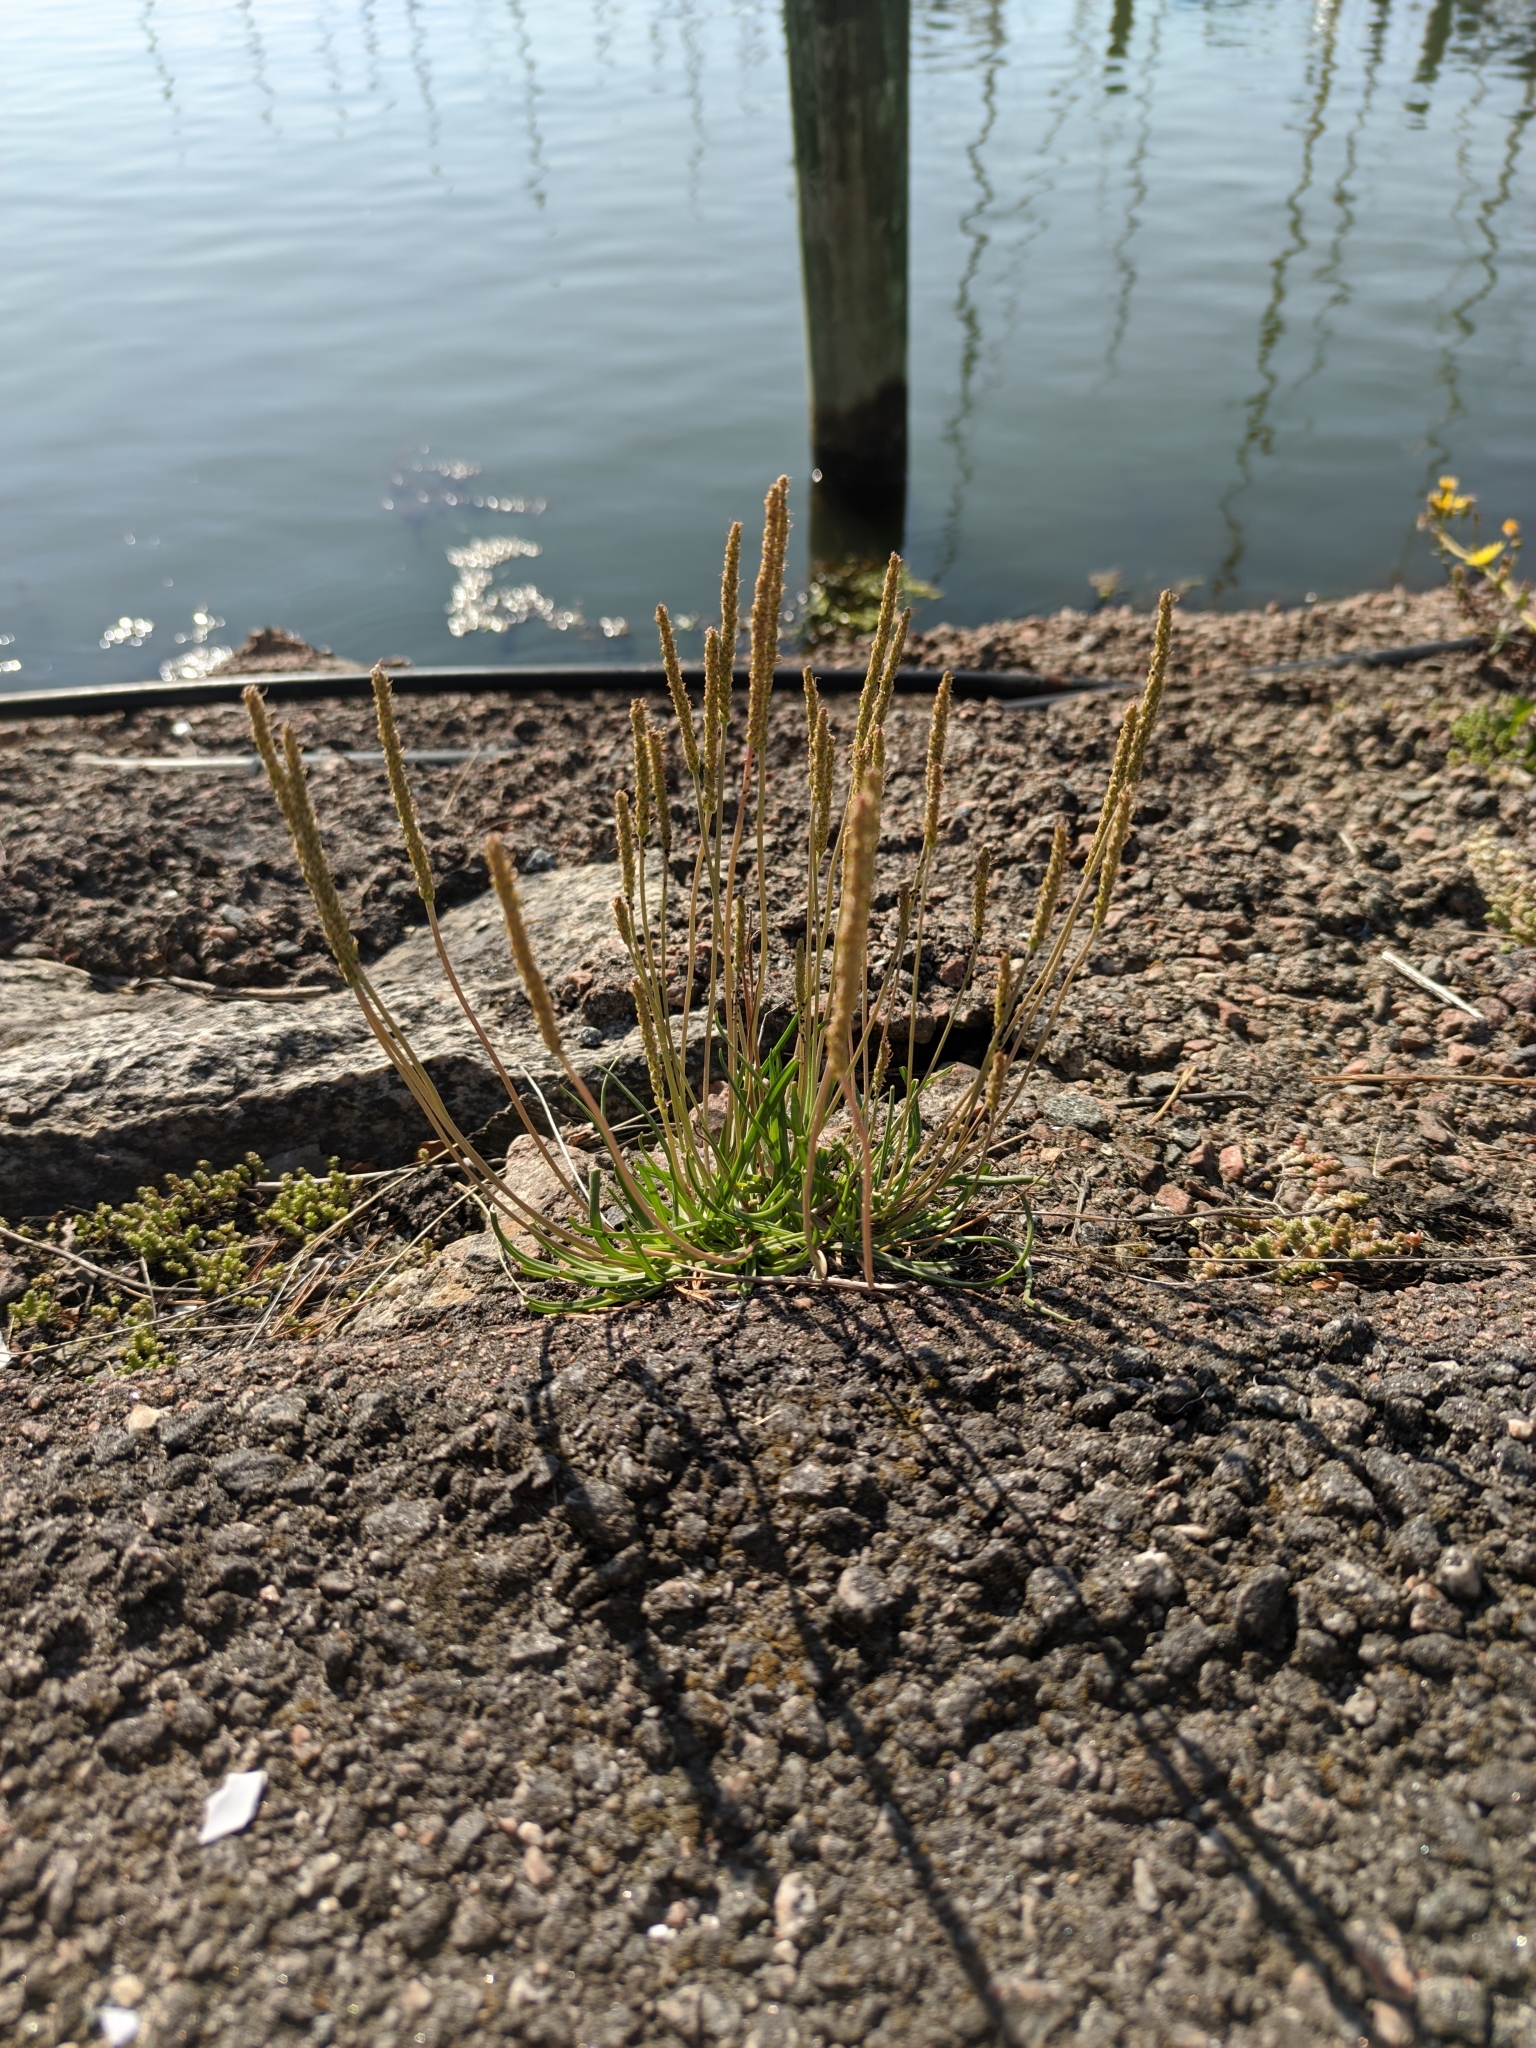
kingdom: Plantae
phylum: Tracheophyta
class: Magnoliopsida
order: Lamiales
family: Plantaginaceae
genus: Plantago
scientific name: Plantago maritima
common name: Sea plantain
